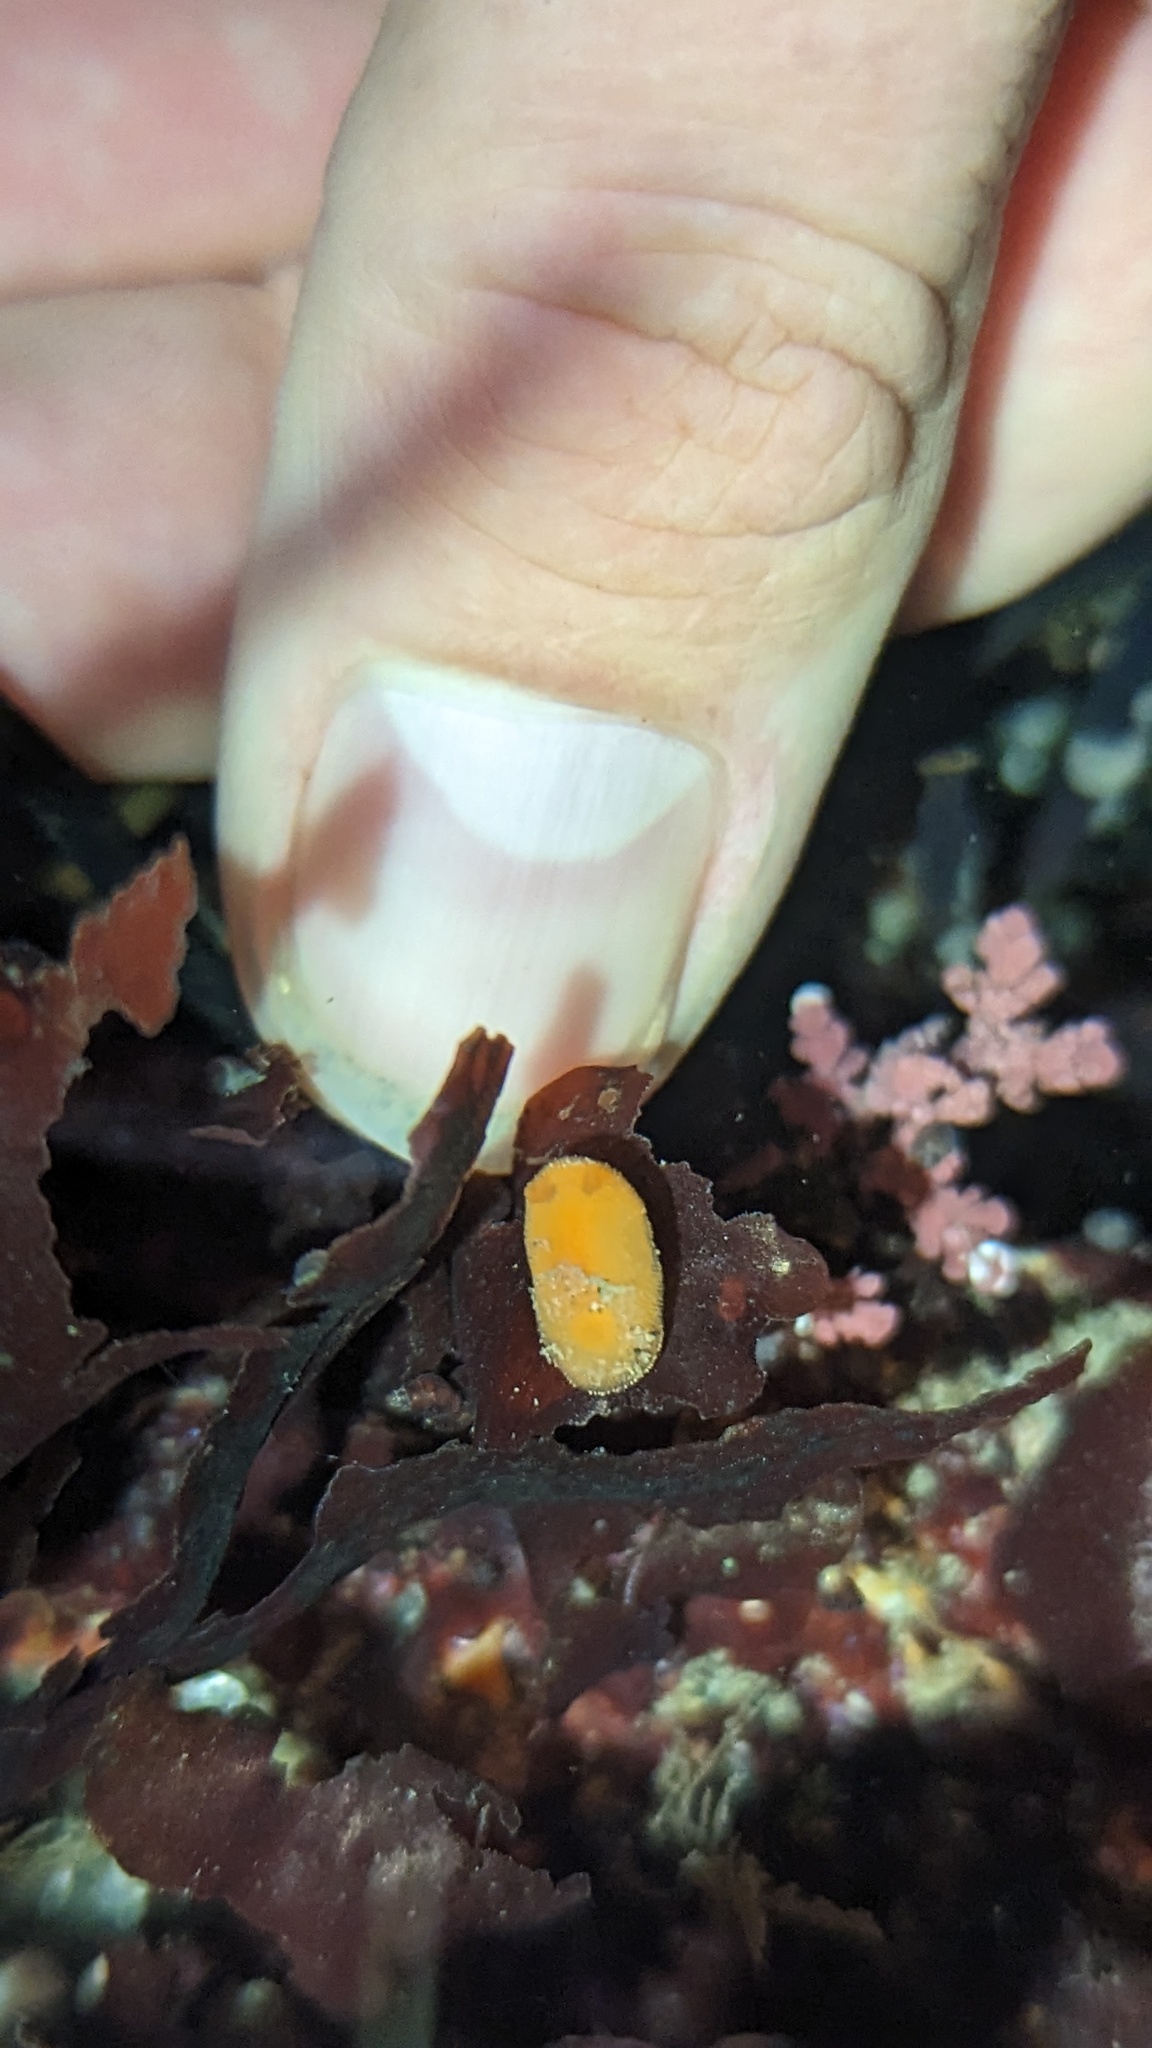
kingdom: Animalia
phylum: Mollusca
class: Gastropoda
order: Nudibranchia
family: Discodorididae
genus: Rostanga
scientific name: Rostanga pulchra
